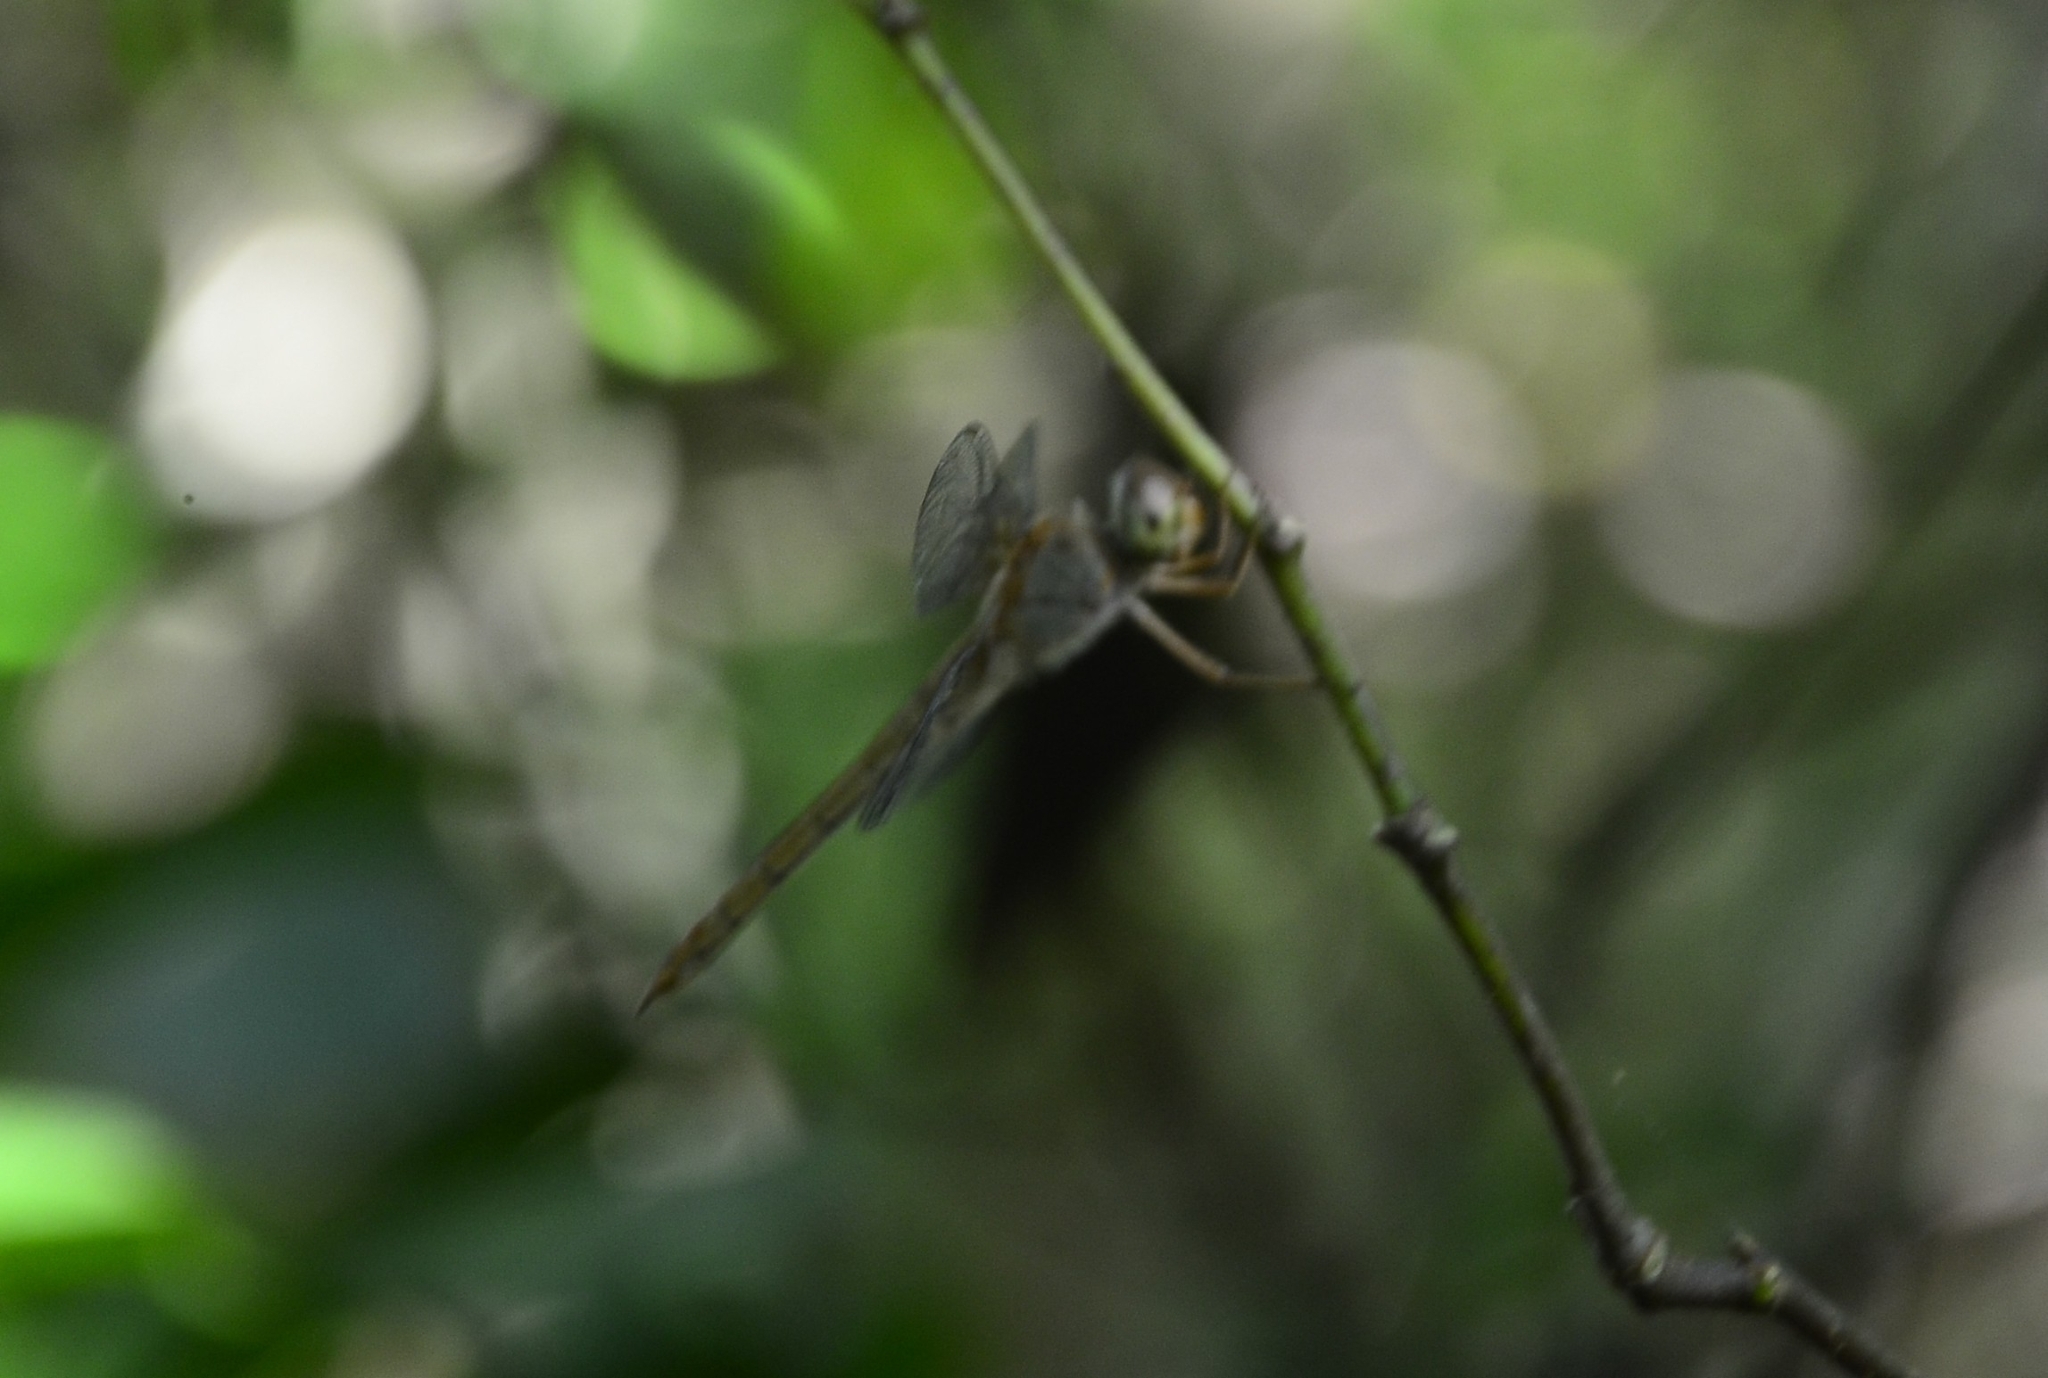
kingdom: Animalia
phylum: Arthropoda
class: Insecta
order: Odonata
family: Libellulidae
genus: Tholymis
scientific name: Tholymis tillarga
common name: Coral-tailed cloud wing
